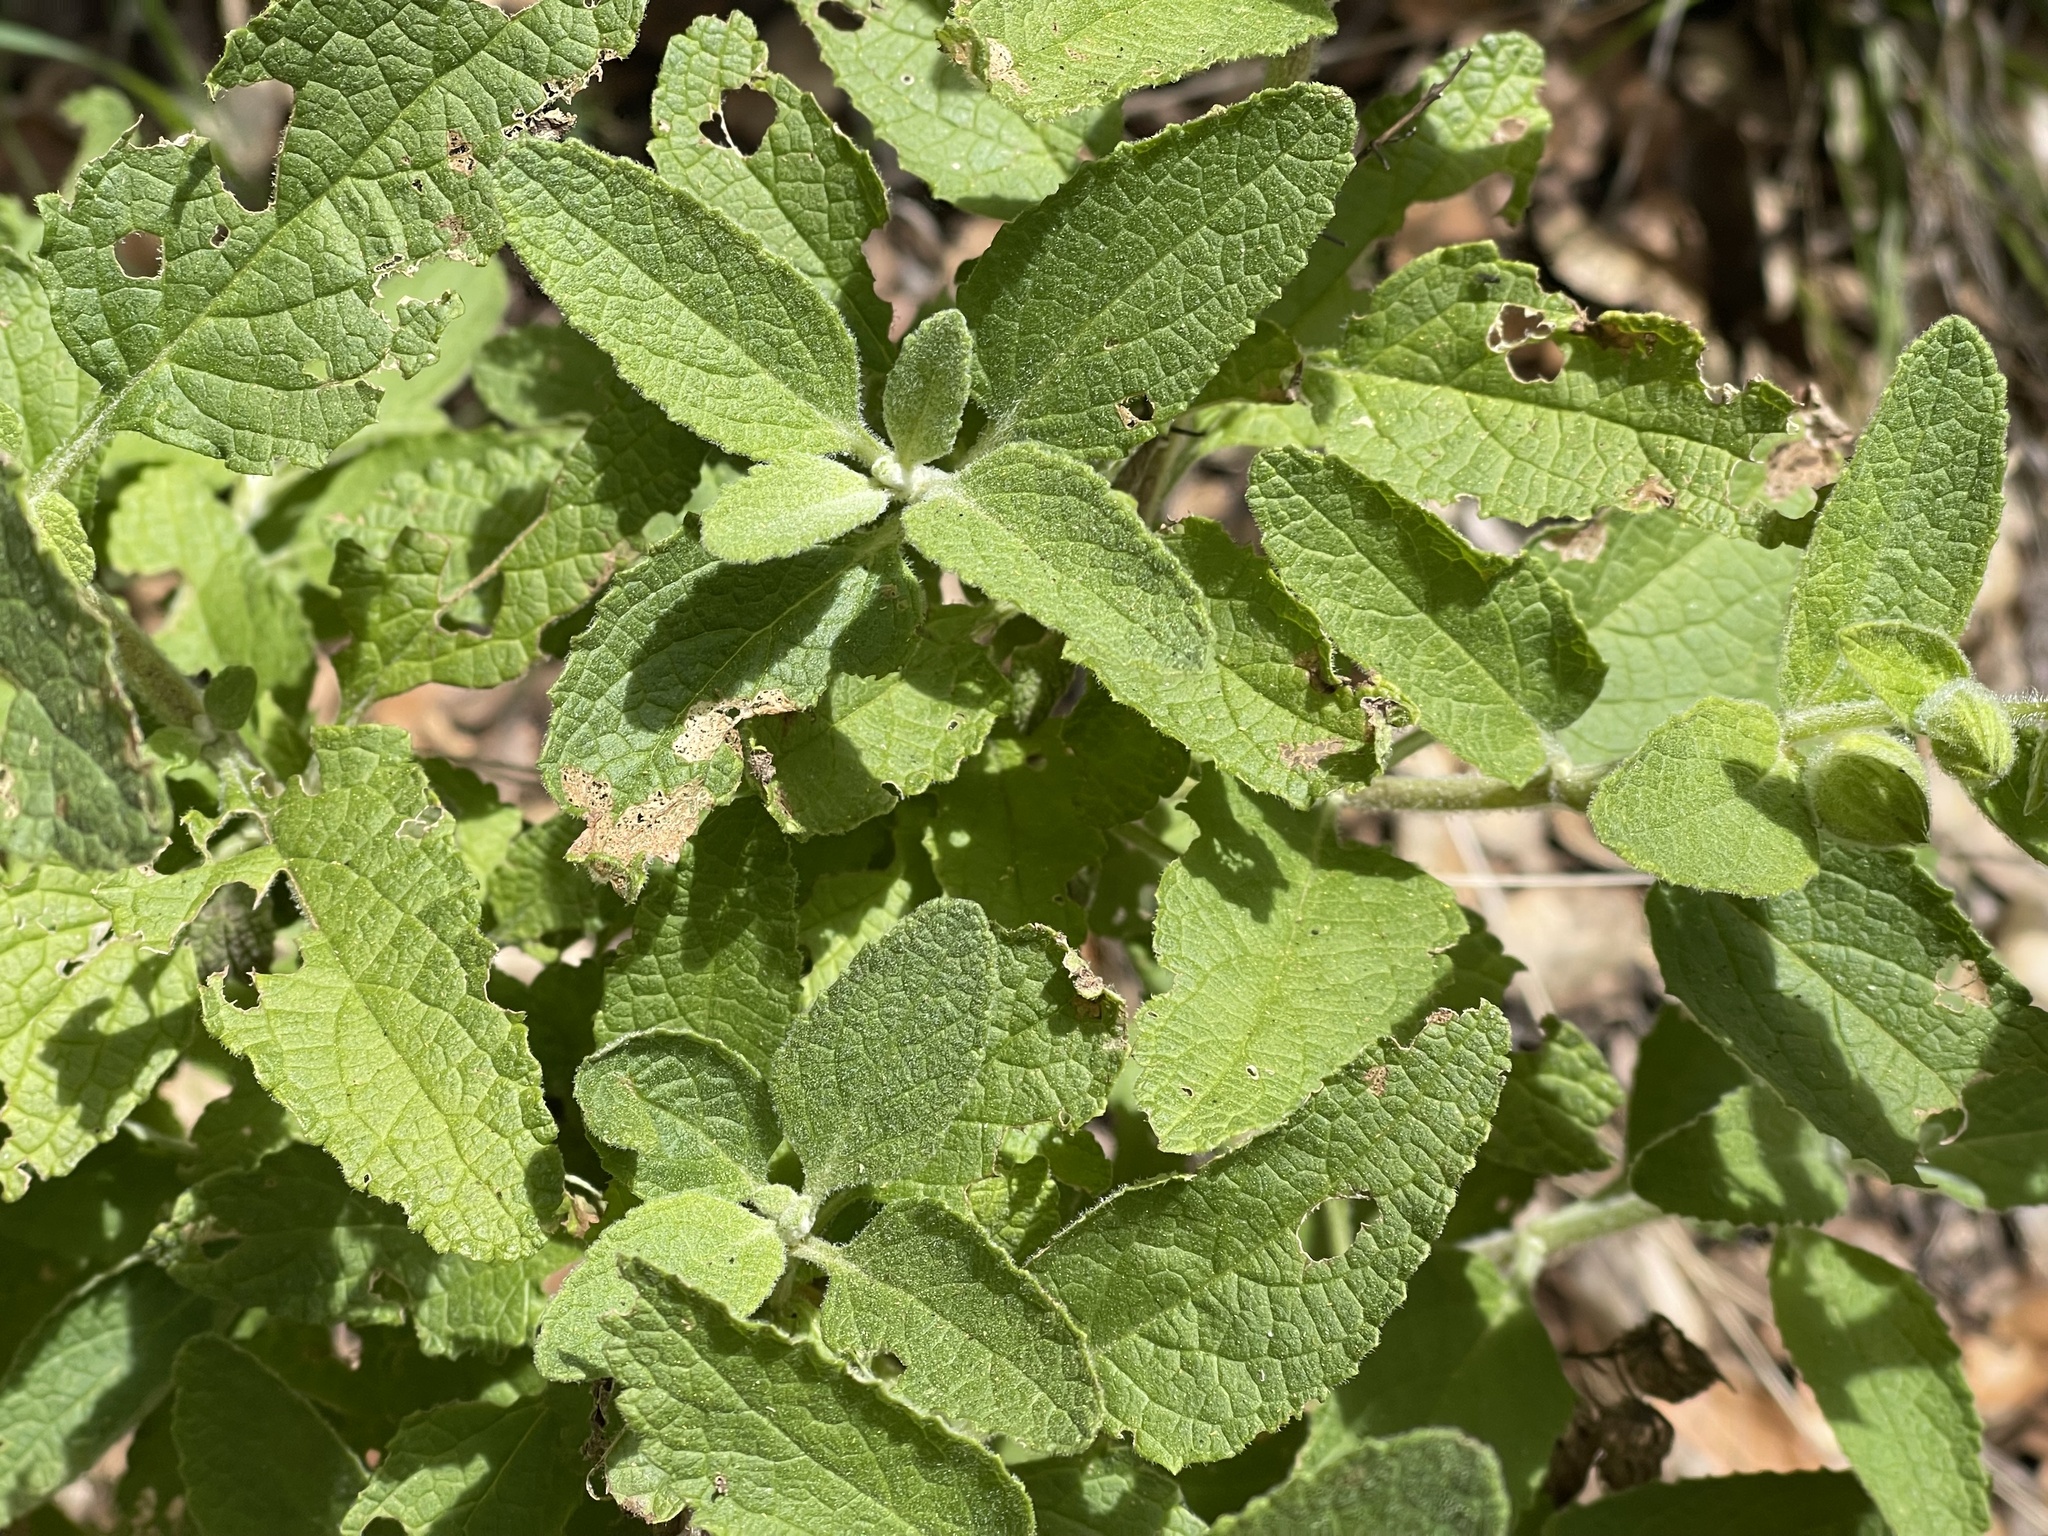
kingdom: Plantae
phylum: Tracheophyta
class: Magnoliopsida
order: Lamiales
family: Lamiaceae
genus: Lepechinia
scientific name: Lepechinia calycina
